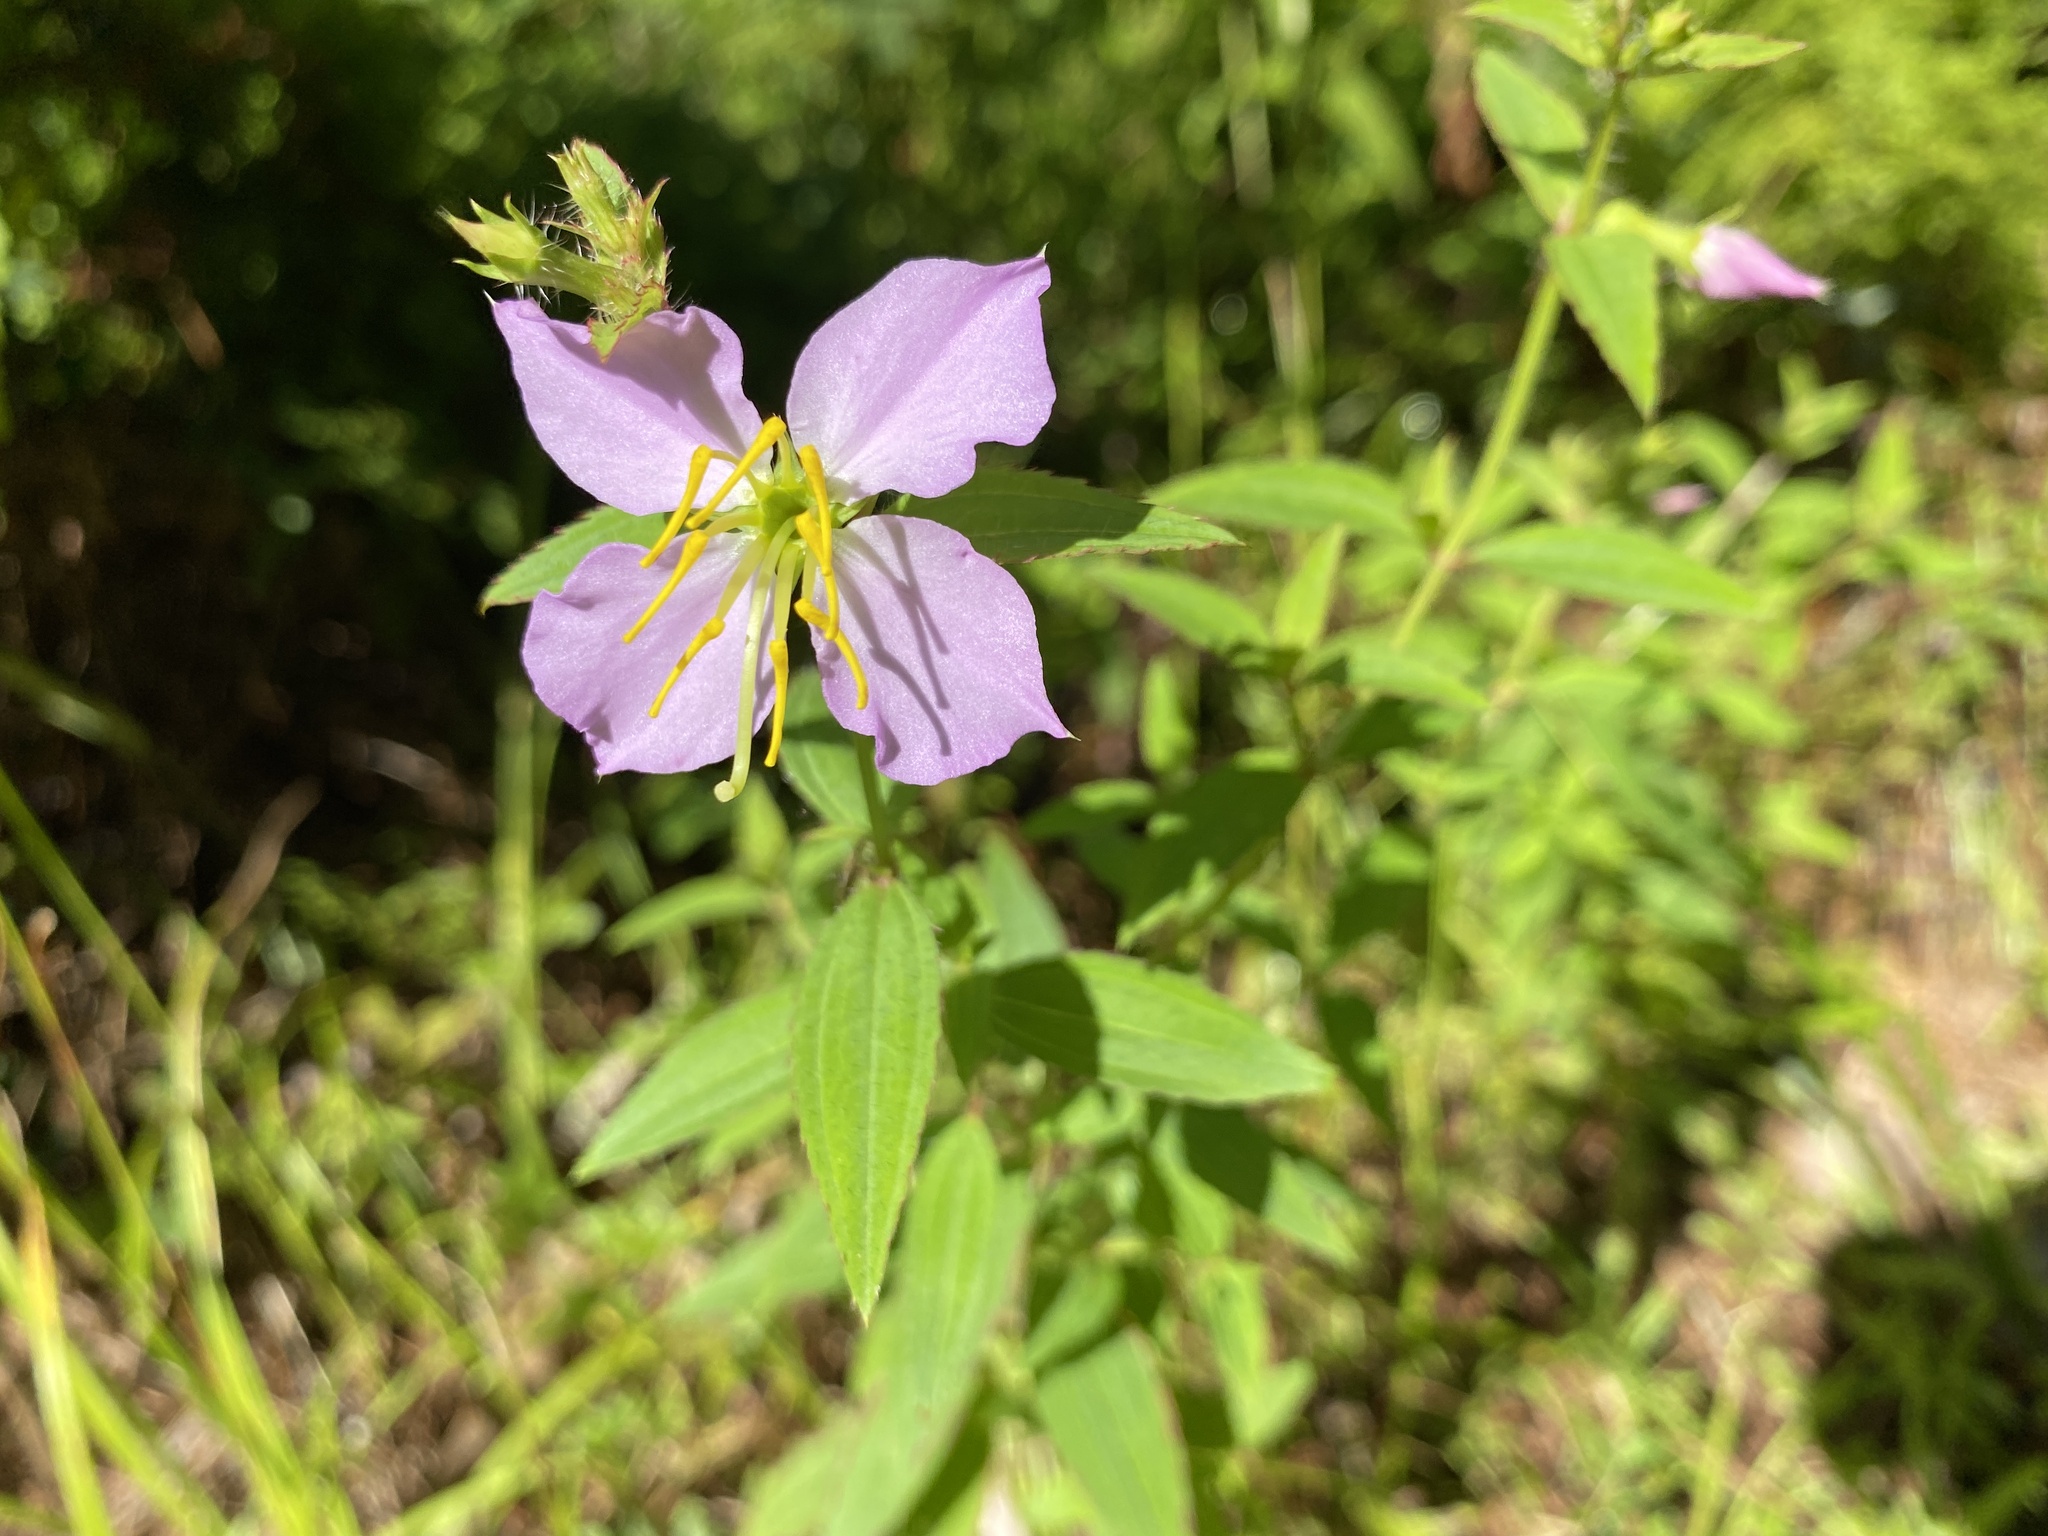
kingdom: Plantae
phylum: Tracheophyta
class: Magnoliopsida
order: Myrtales
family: Melastomataceae
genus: Rhexia
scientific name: Rhexia mariana
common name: Dull meadow-pitcher
